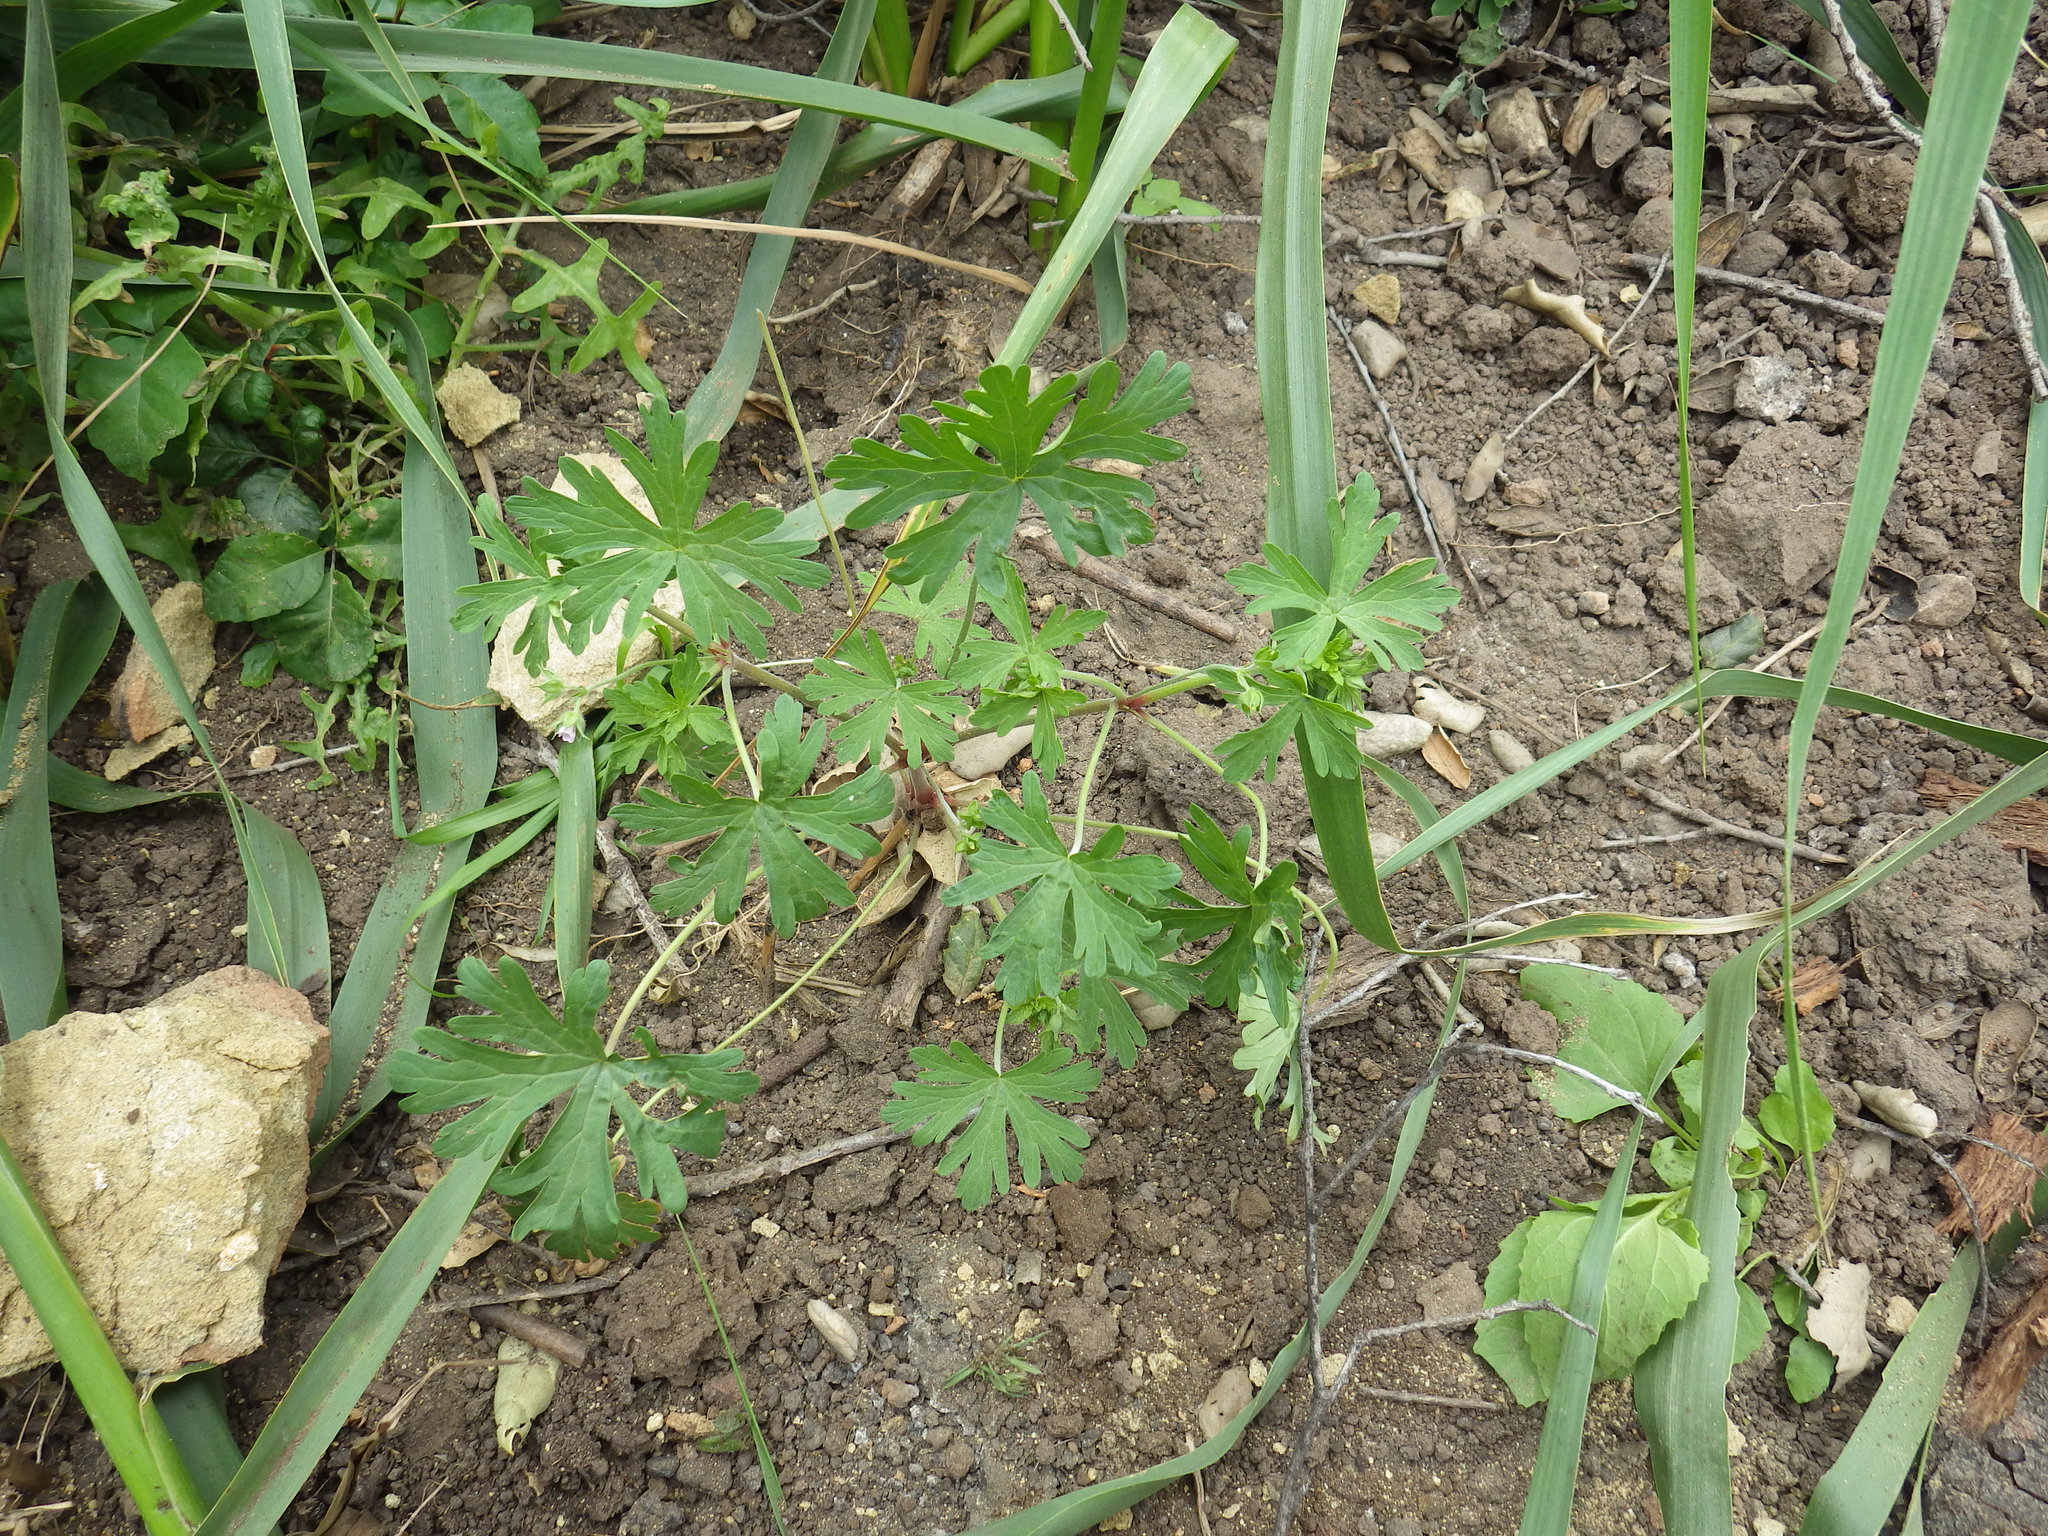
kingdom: Plantae
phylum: Tracheophyta
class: Magnoliopsida
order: Geraniales
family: Geraniaceae
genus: Geranium
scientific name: Geranium carolinianum
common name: Carolina crane's-bill
